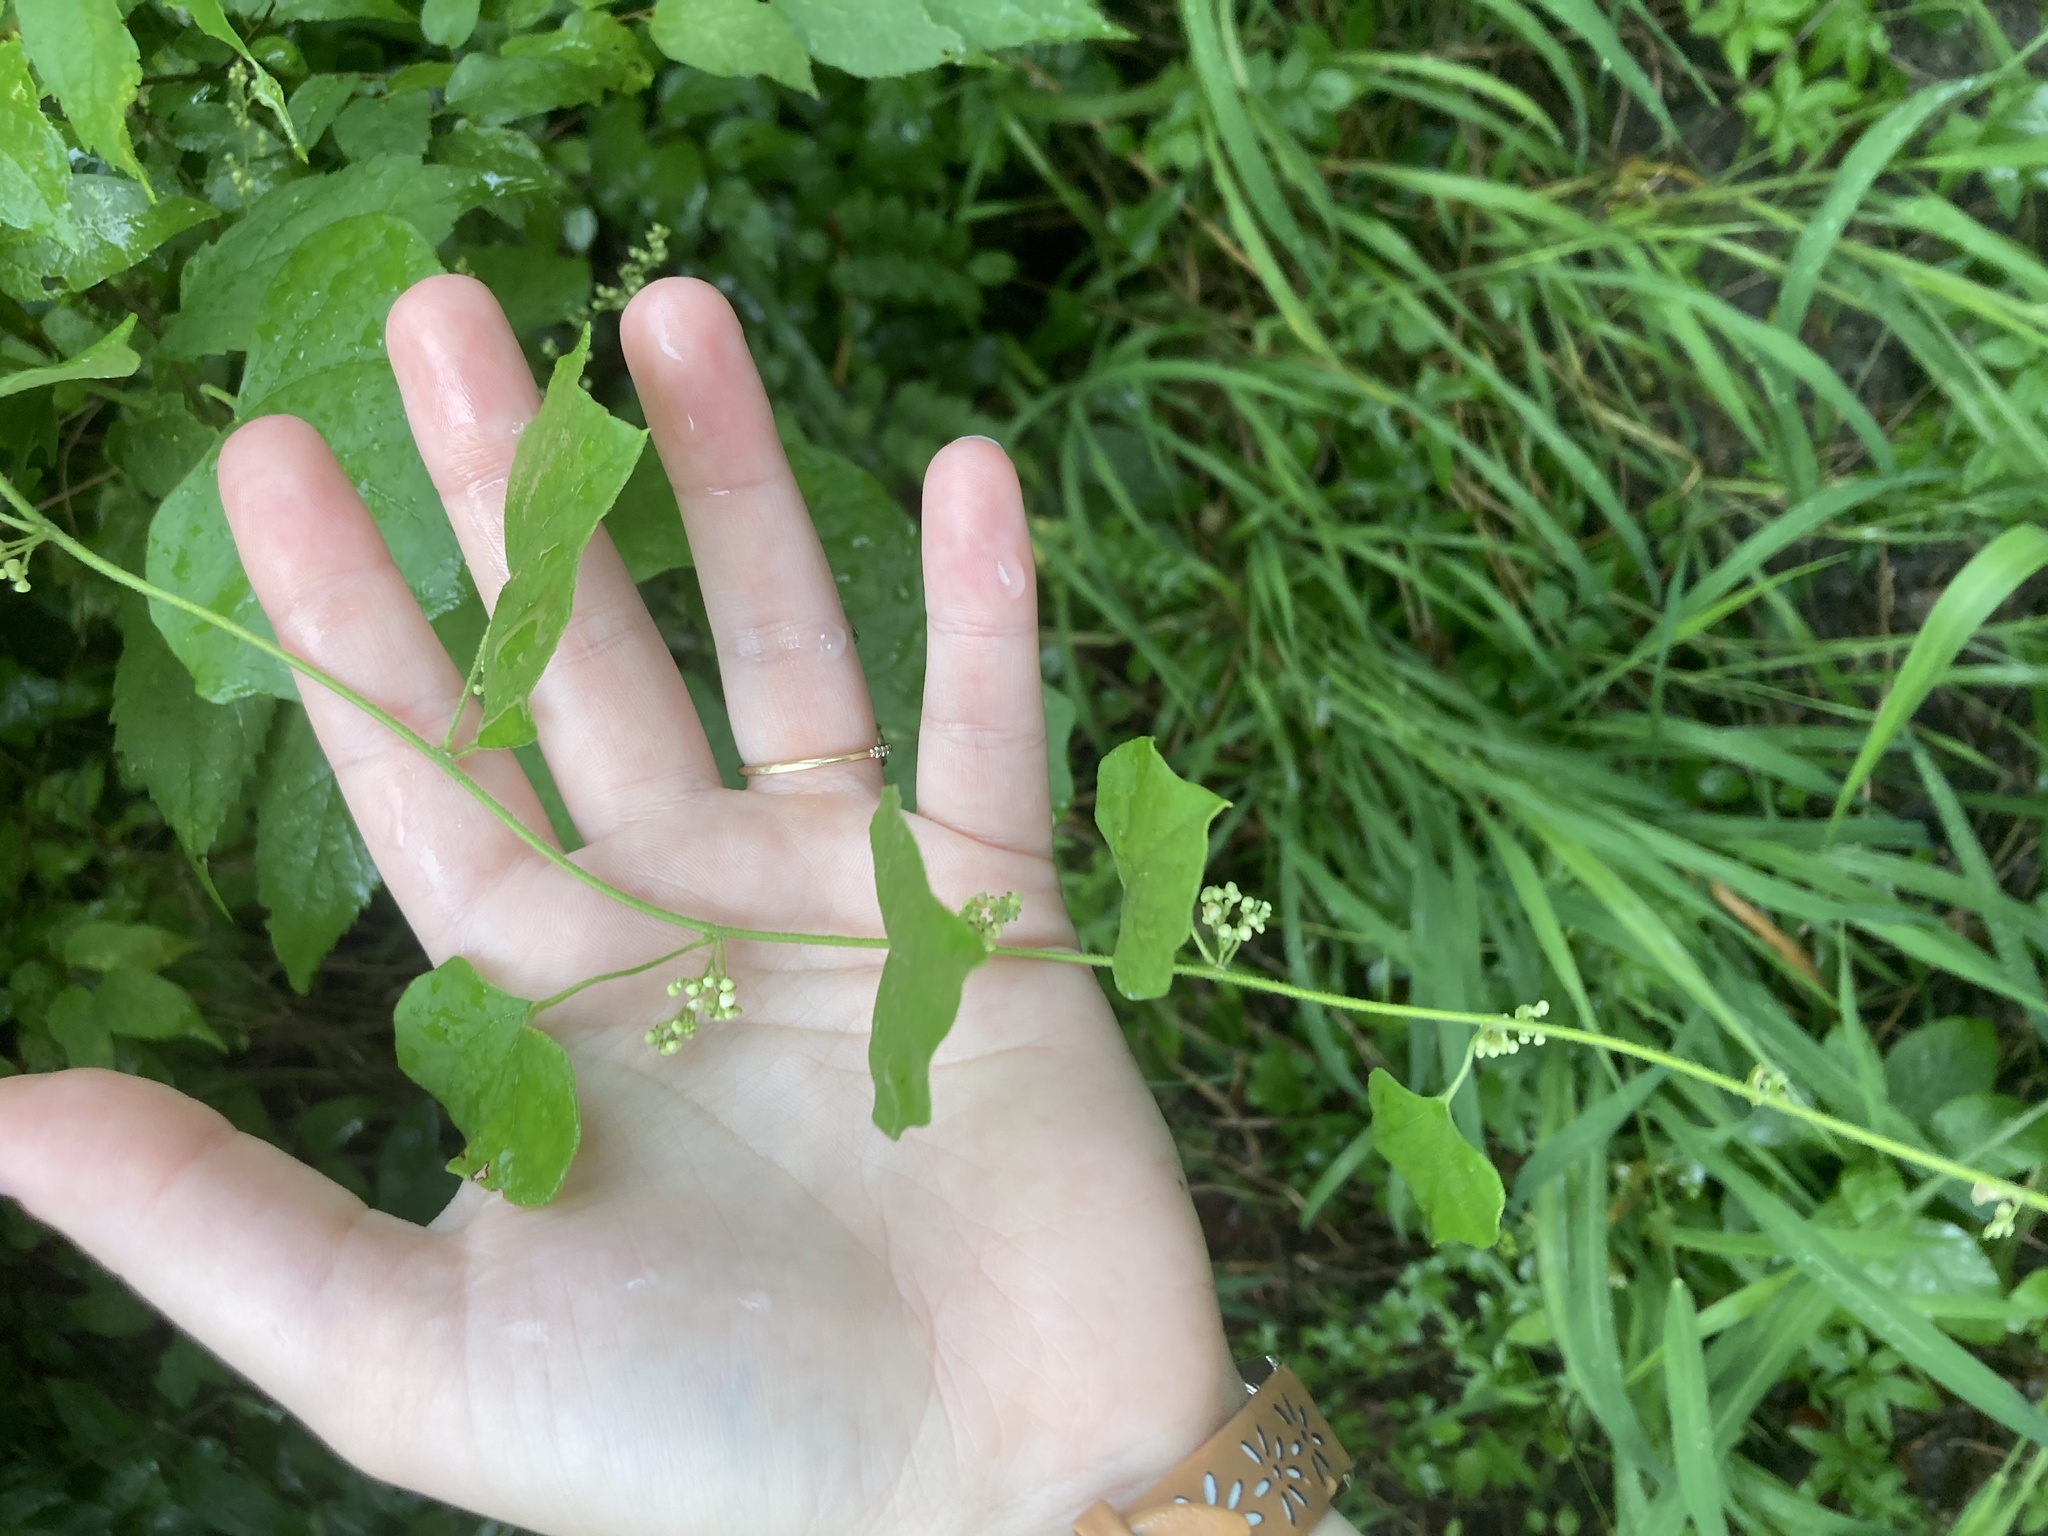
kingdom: Plantae
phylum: Tracheophyta
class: Magnoliopsida
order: Ranunculales
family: Menispermaceae
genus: Cocculus
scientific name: Cocculus carolinus
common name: Carolina moonseed
